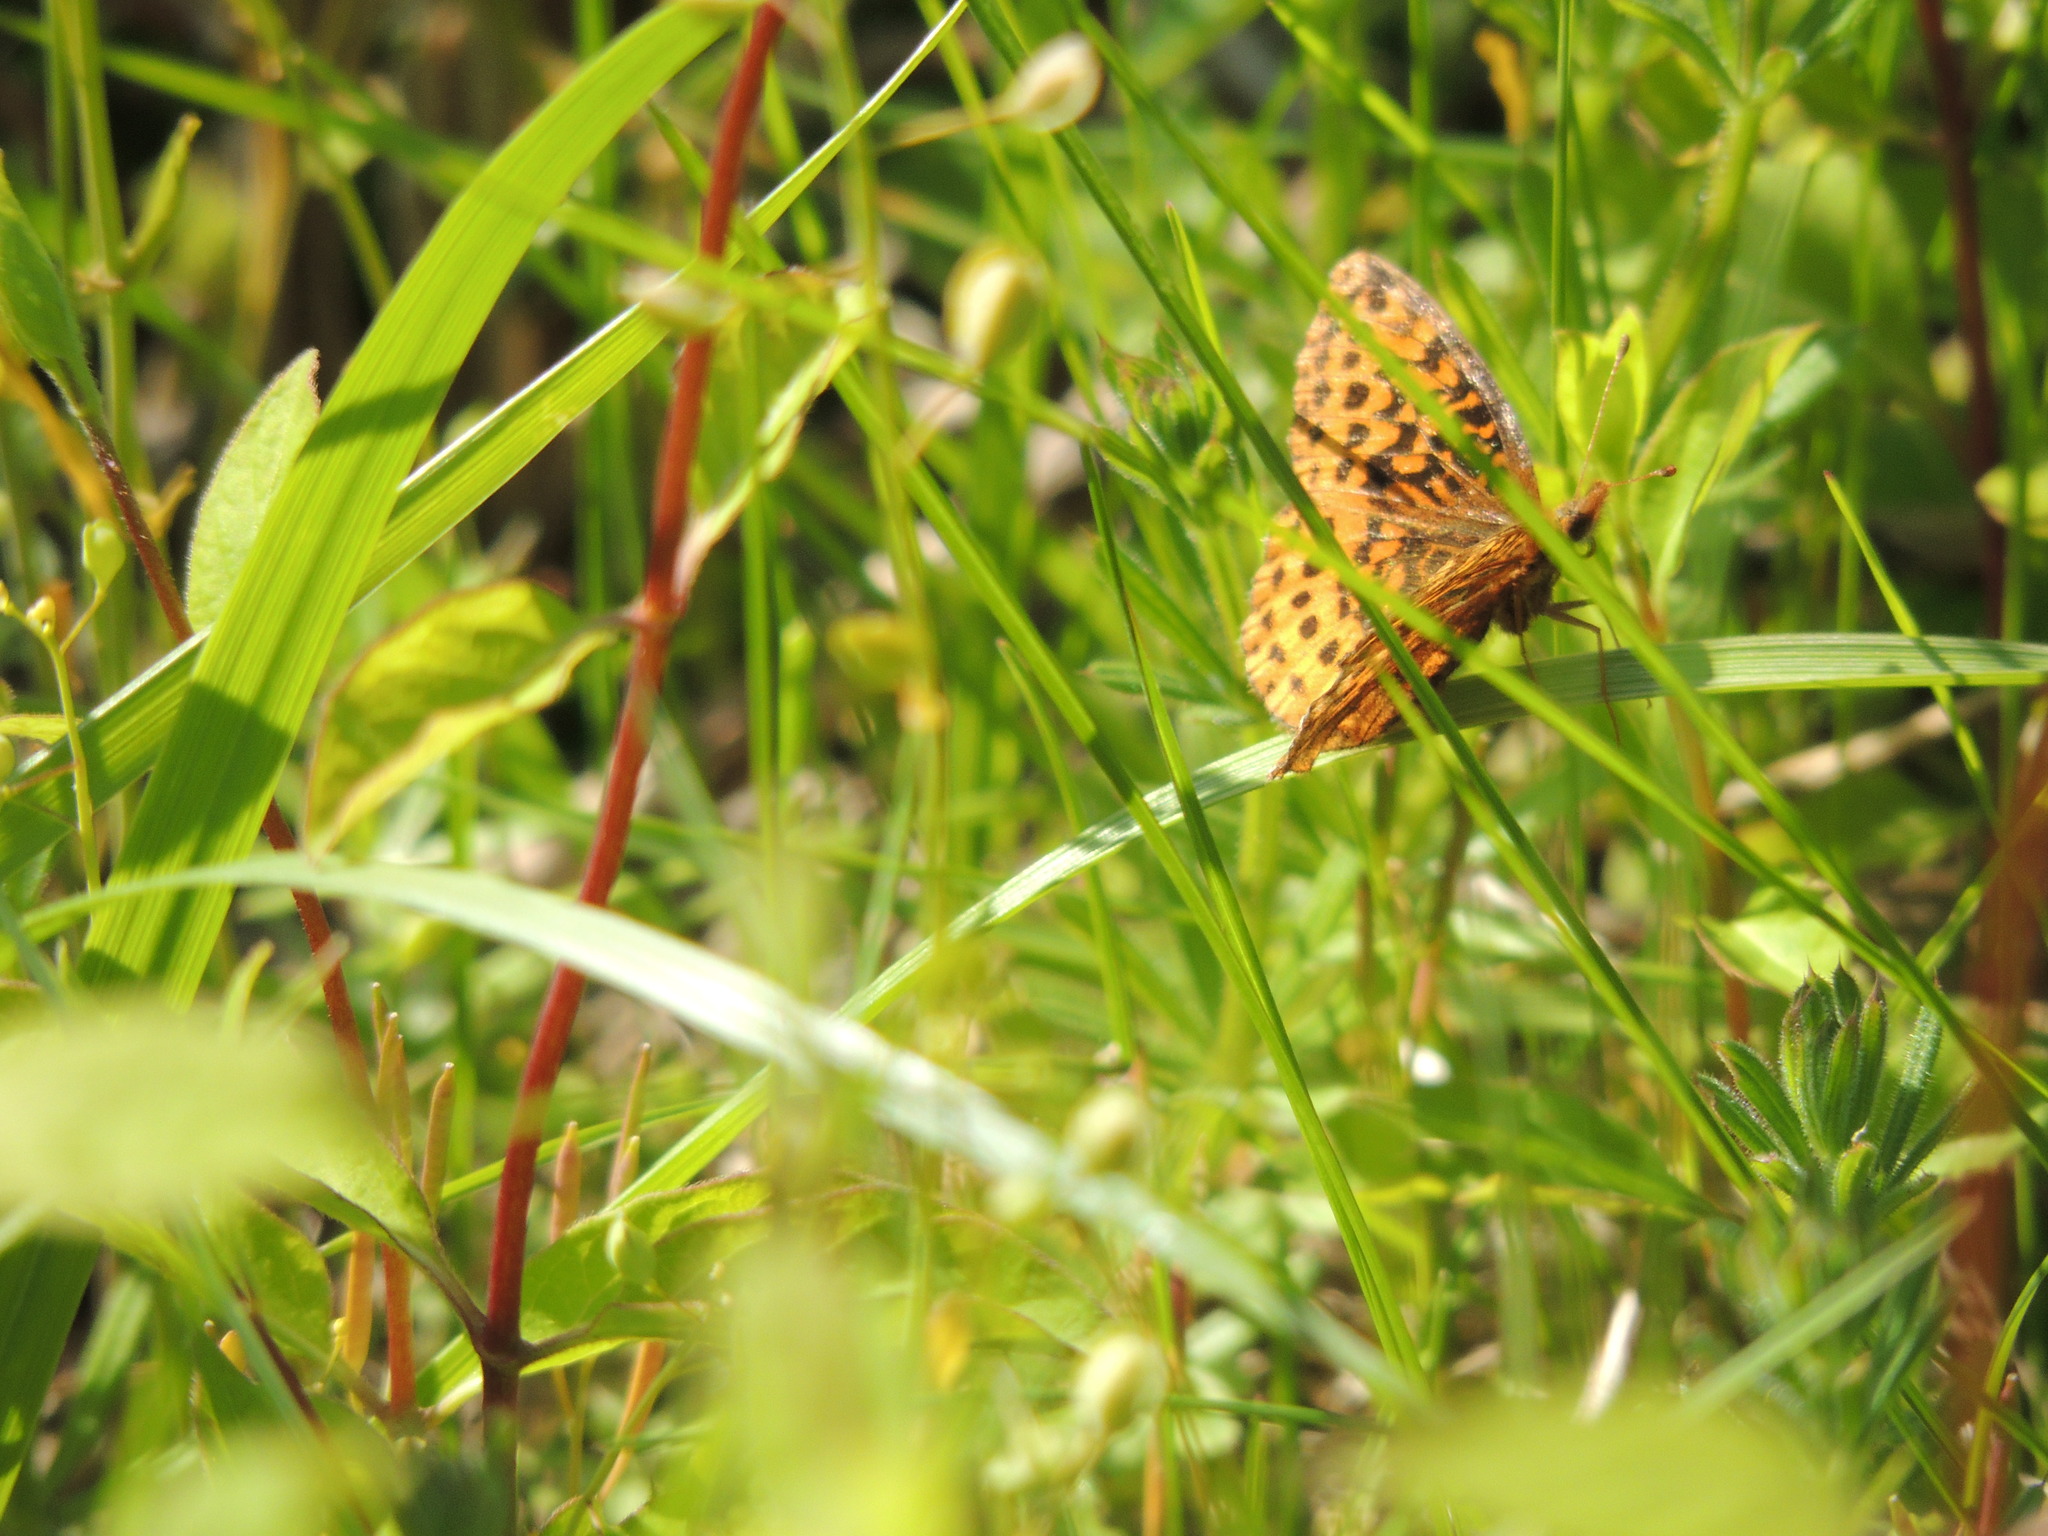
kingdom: Animalia
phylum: Arthropoda
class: Insecta
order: Lepidoptera
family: Nymphalidae
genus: Clossiana
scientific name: Clossiana toddi
